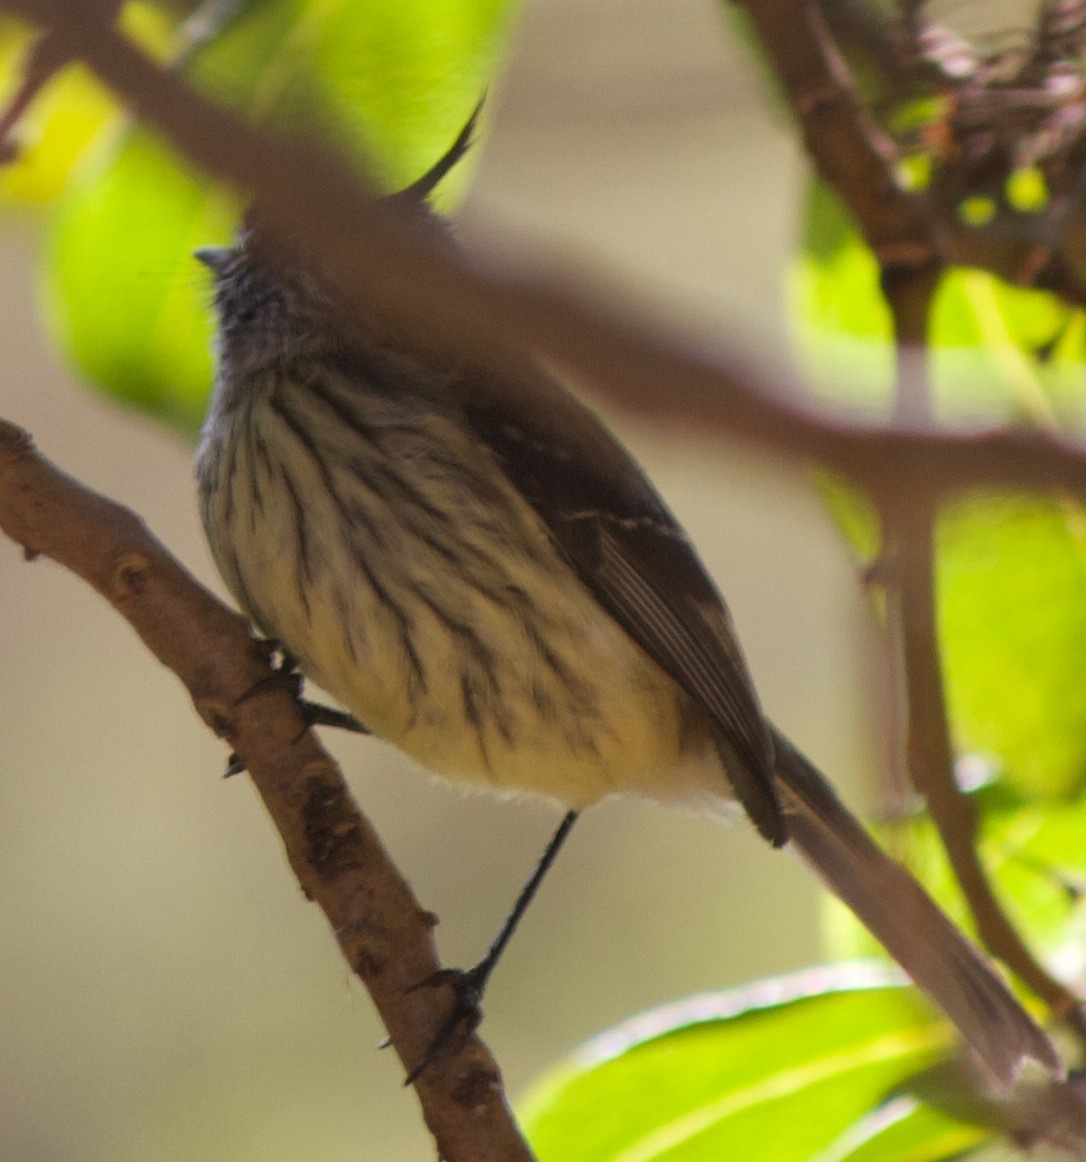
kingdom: Animalia
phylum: Chordata
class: Aves
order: Passeriformes
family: Tyrannidae
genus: Anairetes
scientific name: Anairetes parulus
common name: Tufted tit-tyrant
